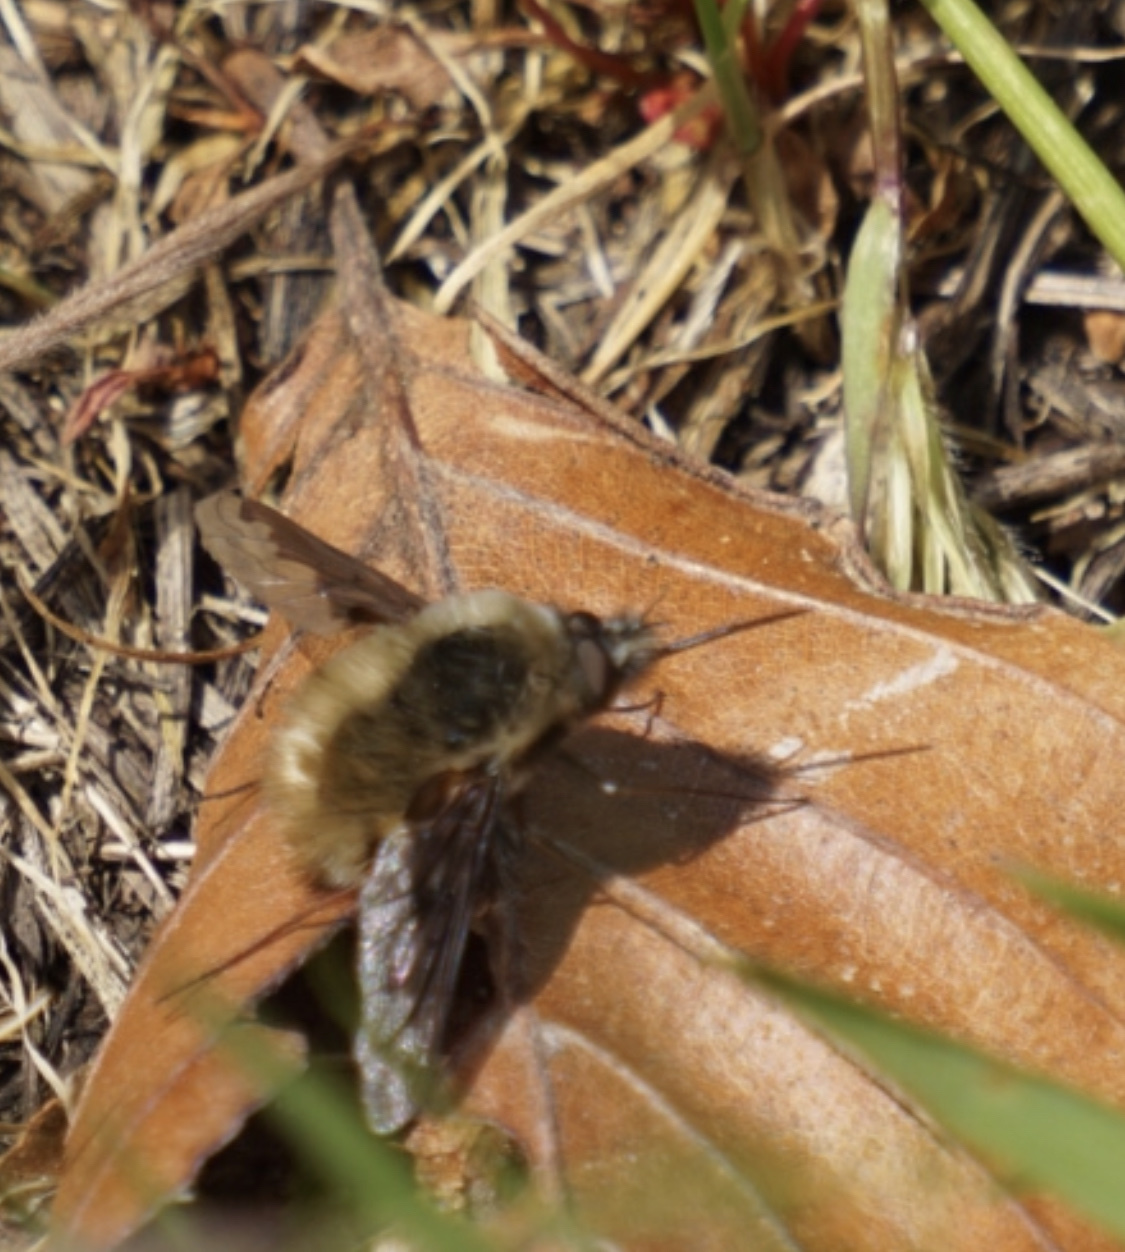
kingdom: Animalia
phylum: Arthropoda
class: Insecta
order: Diptera
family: Bombyliidae
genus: Bombylius
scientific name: Bombylius major
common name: Bee fly
